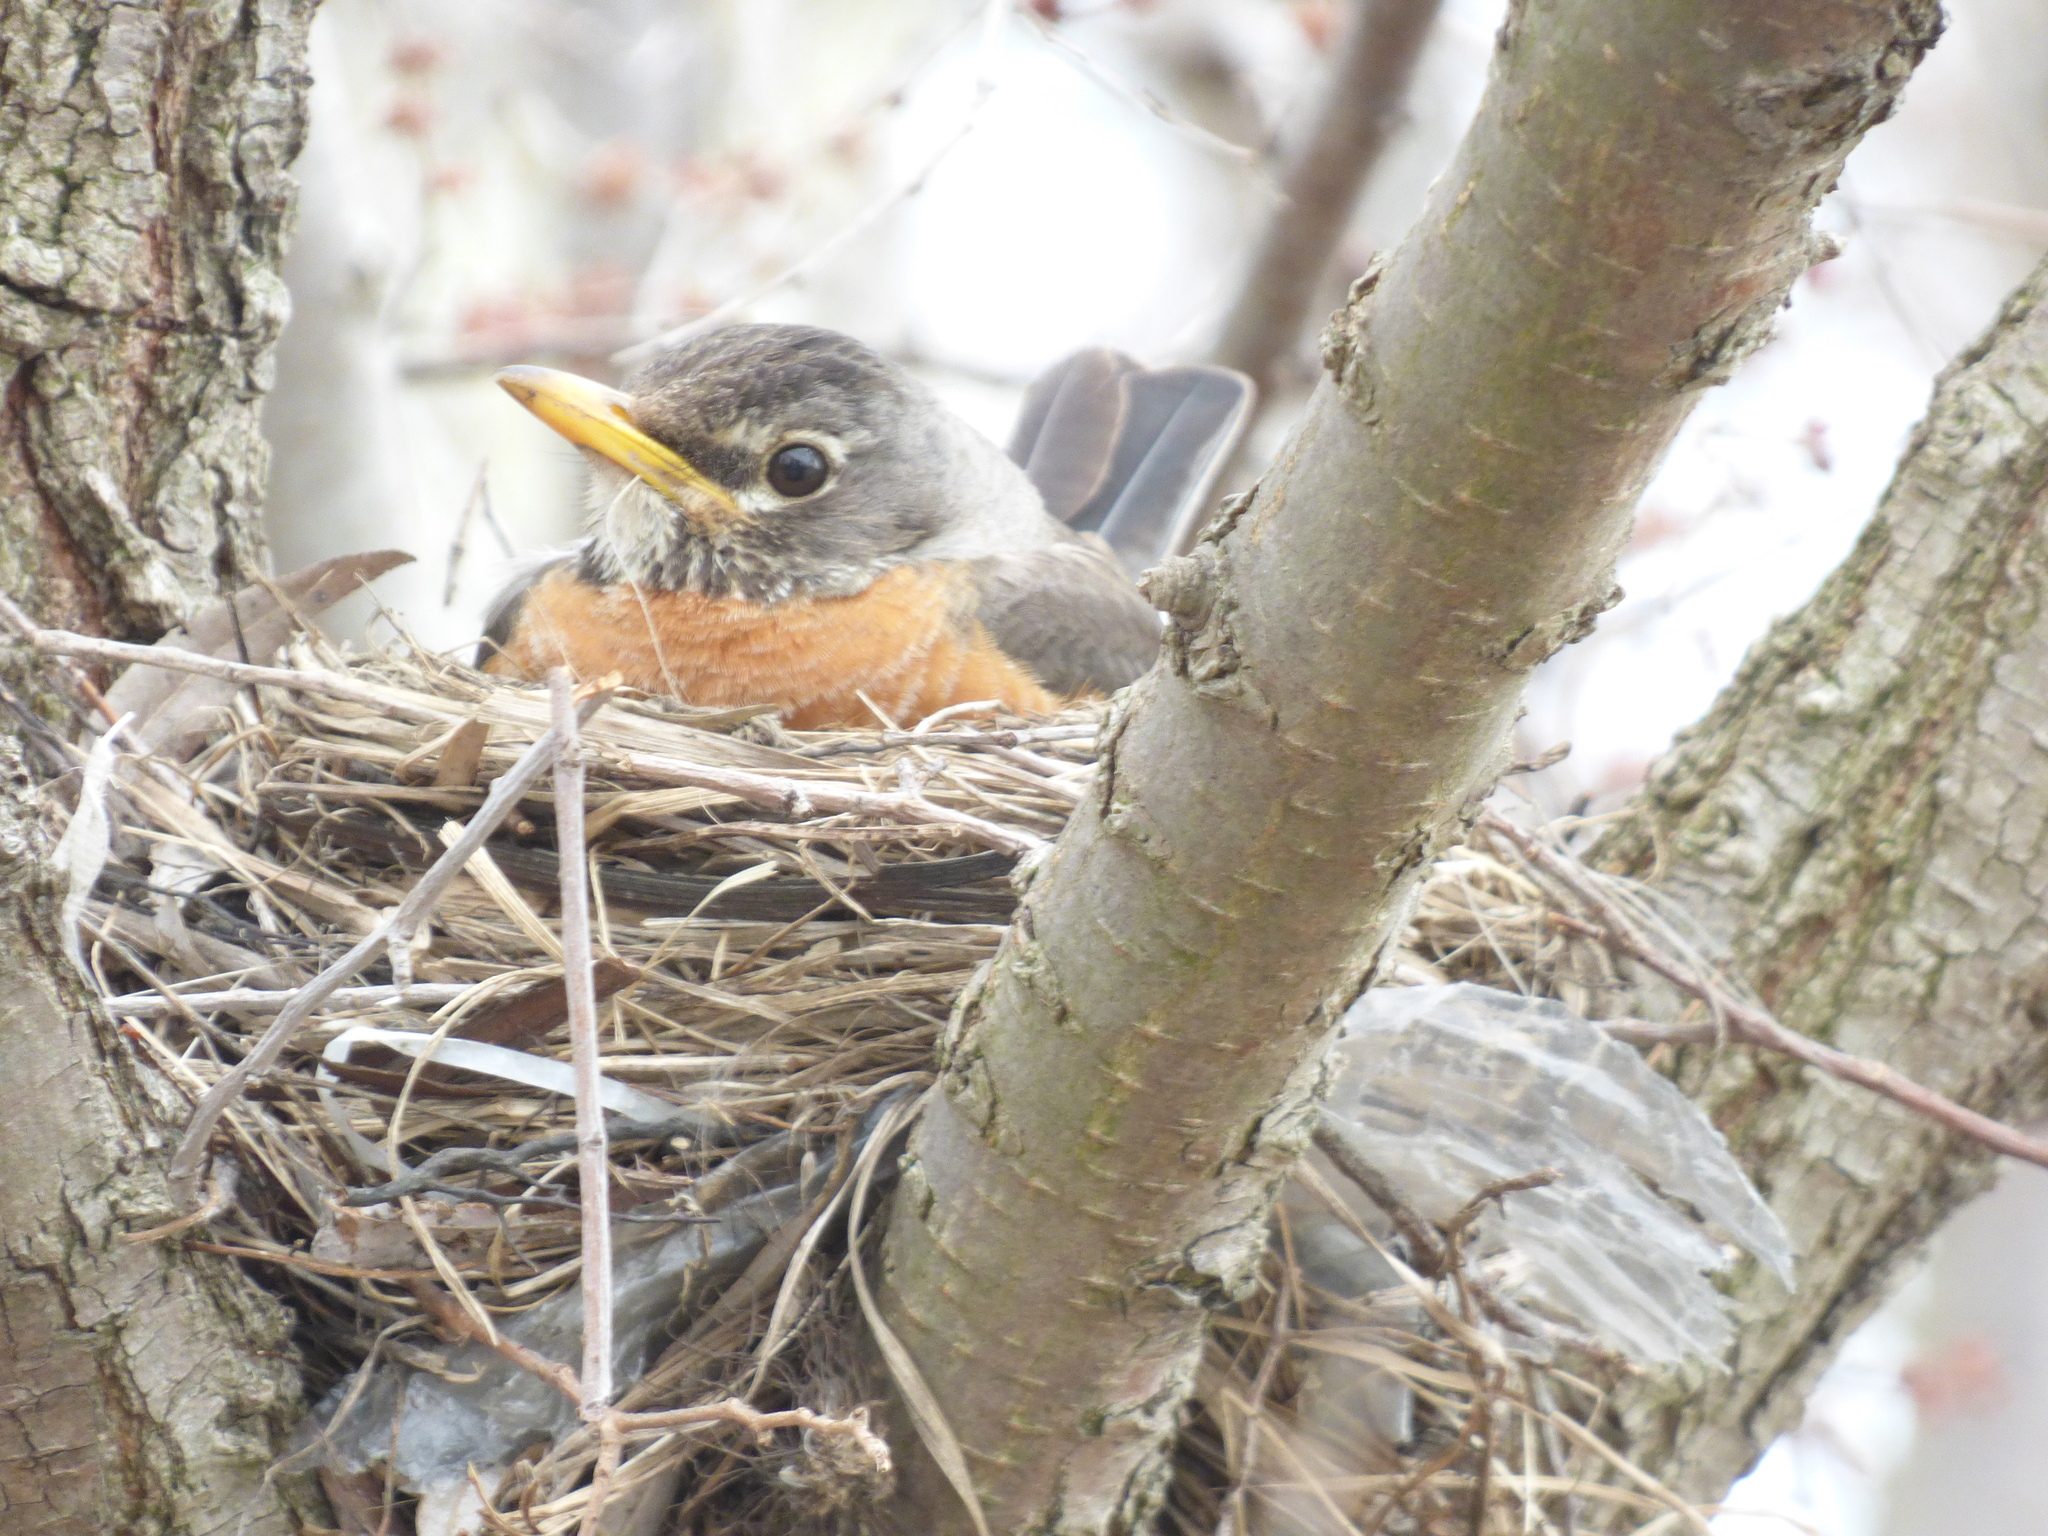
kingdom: Animalia
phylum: Chordata
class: Aves
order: Passeriformes
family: Turdidae
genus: Turdus
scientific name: Turdus migratorius
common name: American robin
